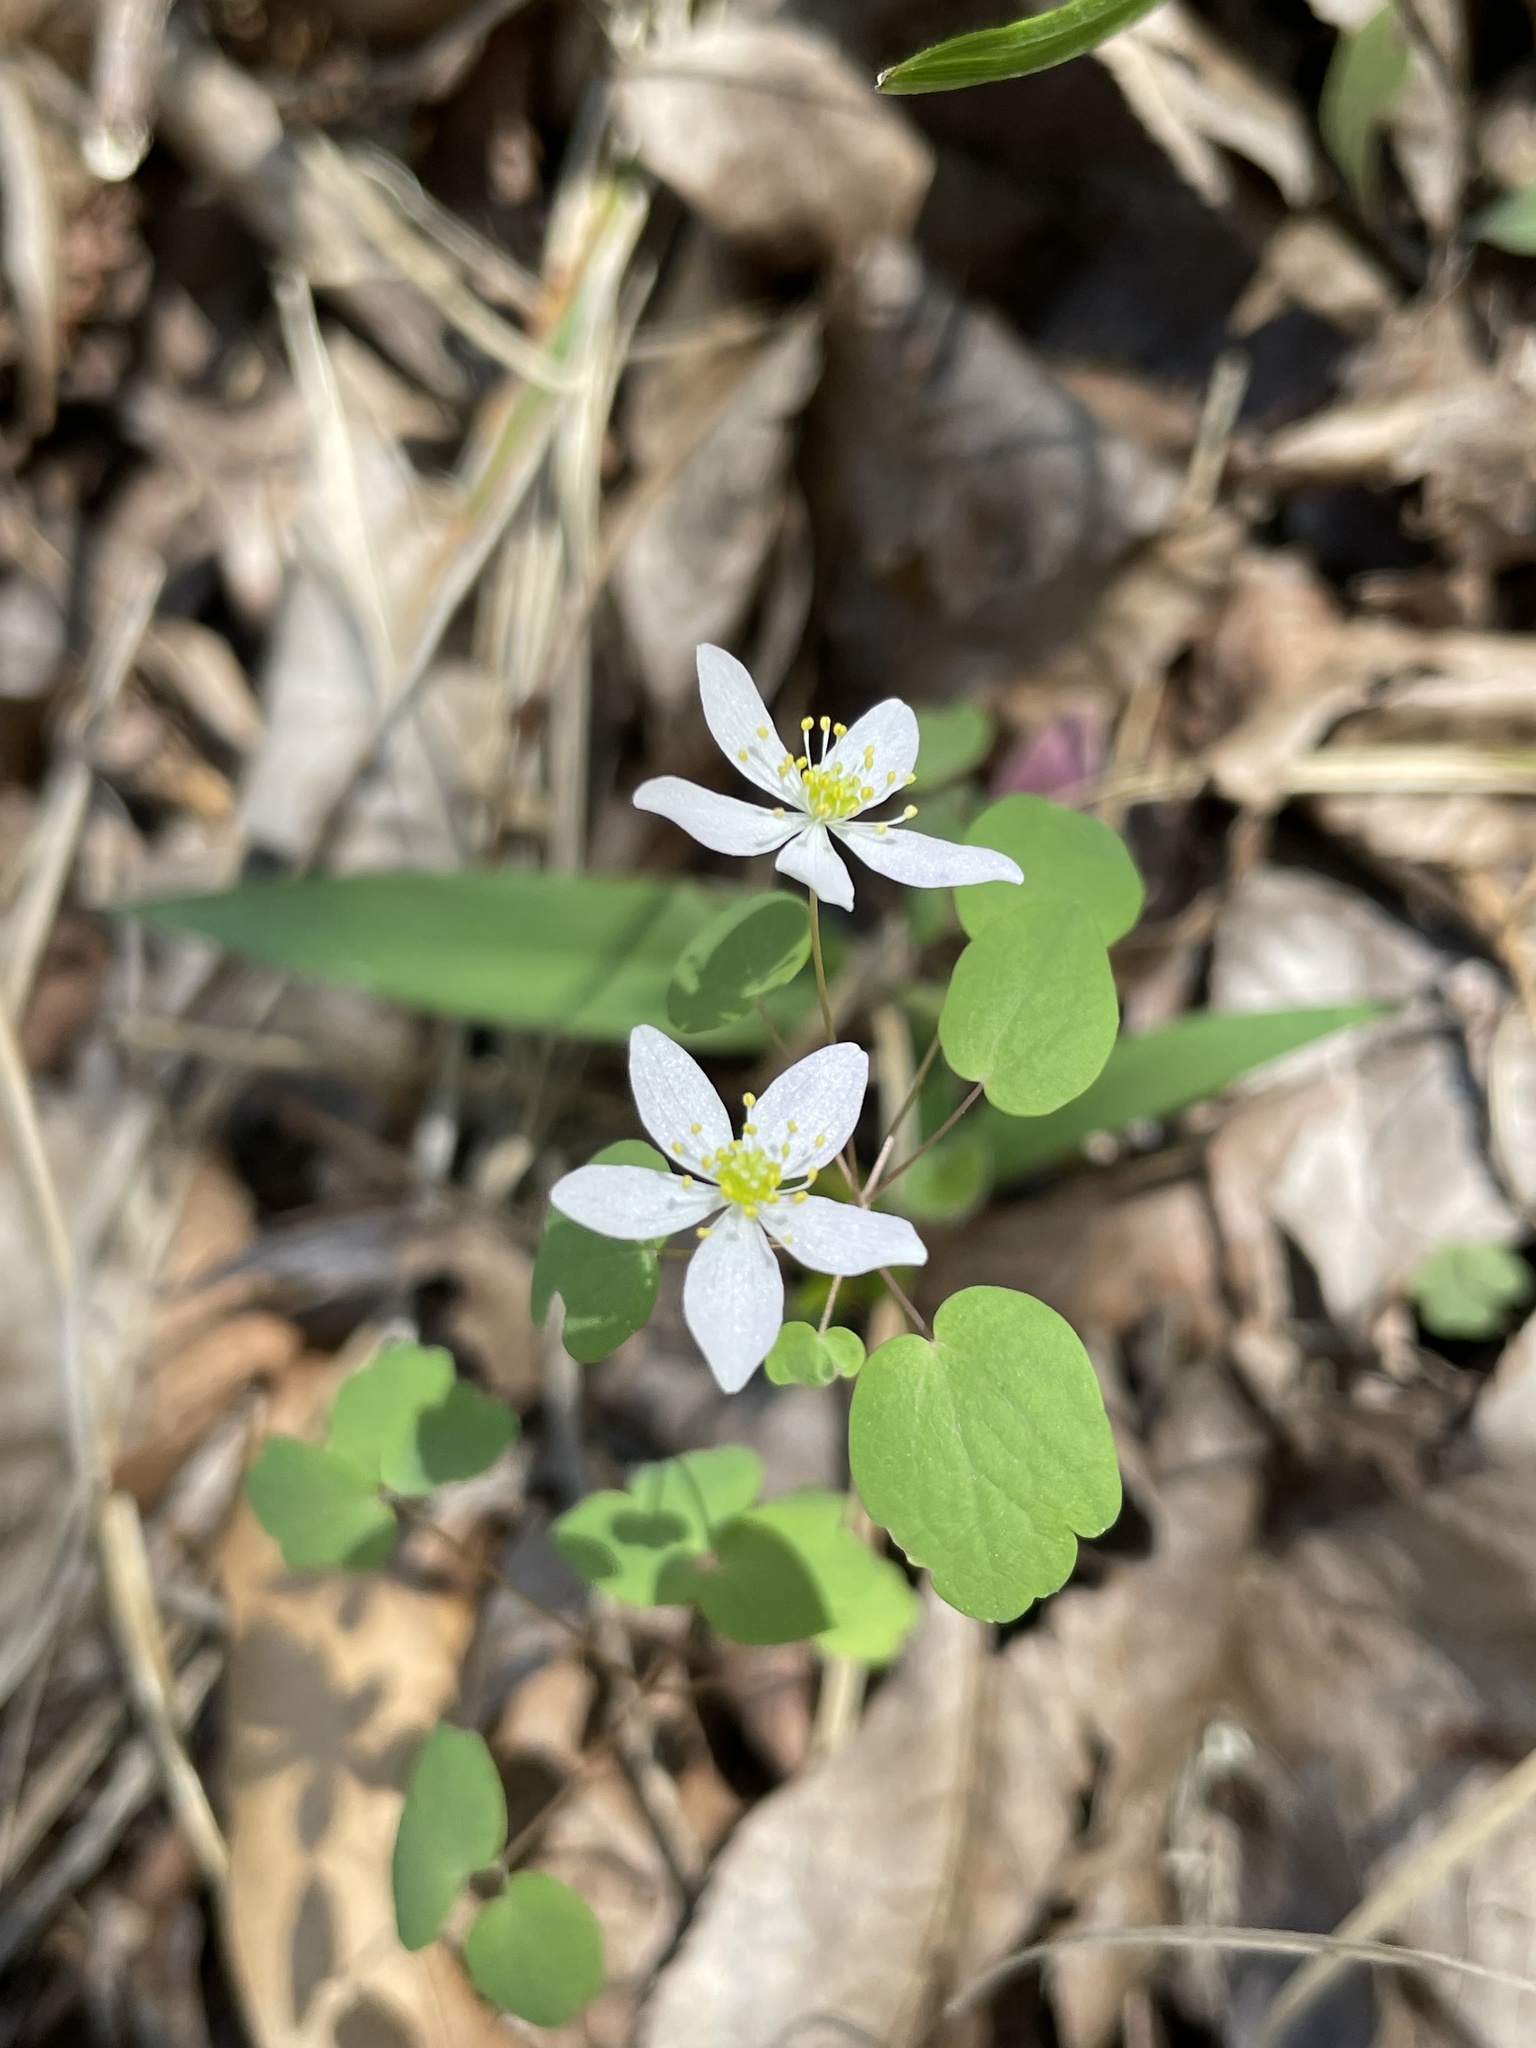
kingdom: Plantae
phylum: Tracheophyta
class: Magnoliopsida
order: Ranunculales
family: Ranunculaceae
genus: Thalictrum
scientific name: Thalictrum thalictroides
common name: Rue-anemone
